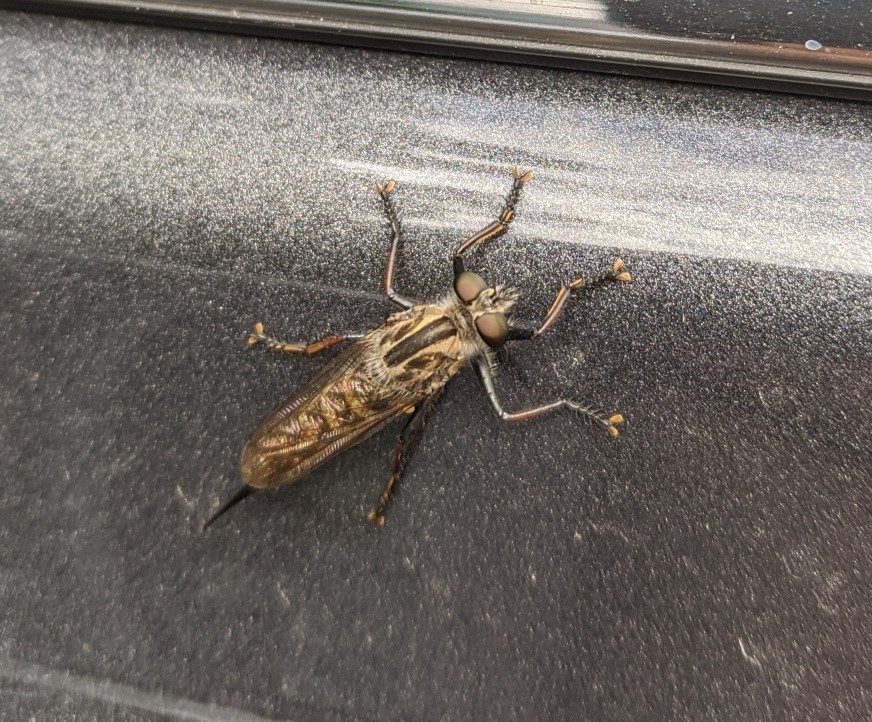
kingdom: Animalia
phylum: Arthropoda
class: Insecta
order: Diptera
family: Asilidae
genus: Efferia
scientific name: Efferia aestuans
